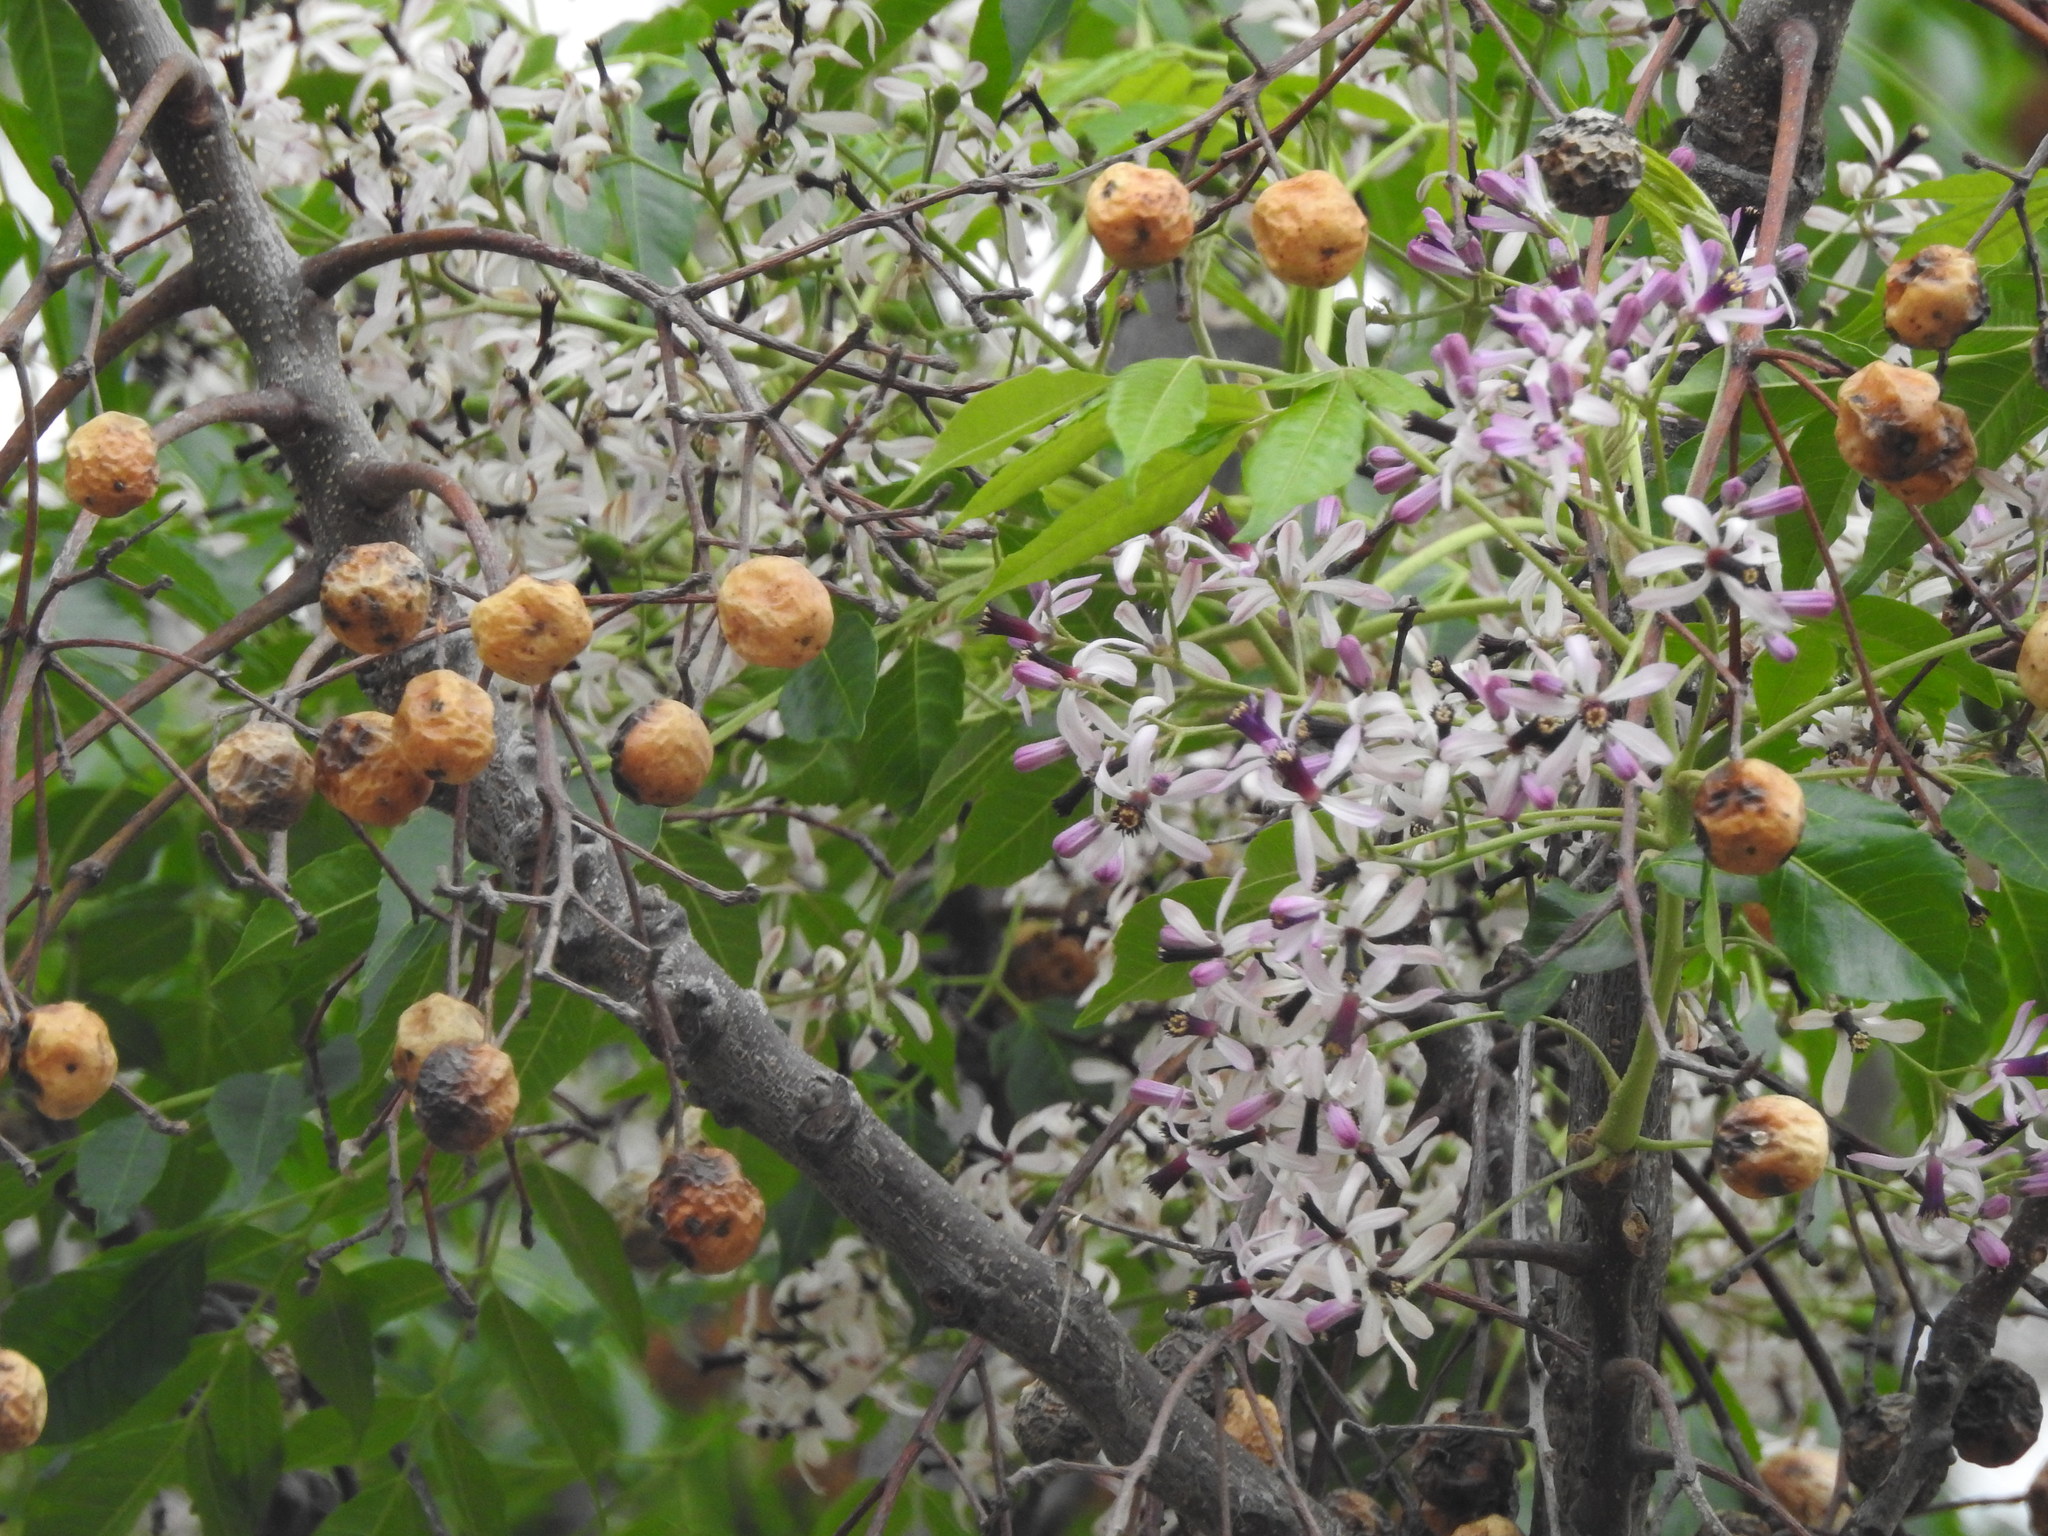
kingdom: Plantae
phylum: Tracheophyta
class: Magnoliopsida
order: Sapindales
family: Meliaceae
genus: Melia
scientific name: Melia azedarach
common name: Chinaberrytree
